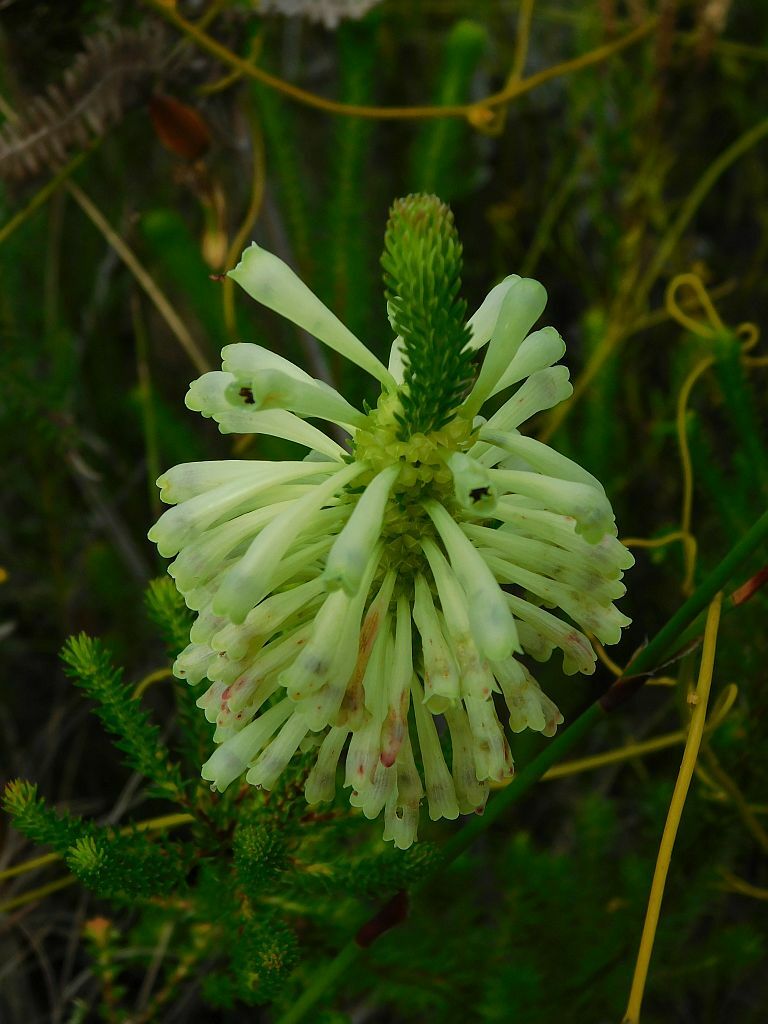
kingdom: Plantae
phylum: Tracheophyta
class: Magnoliopsida
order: Ericales
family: Ericaceae
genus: Erica
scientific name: Erica sessiliflora
